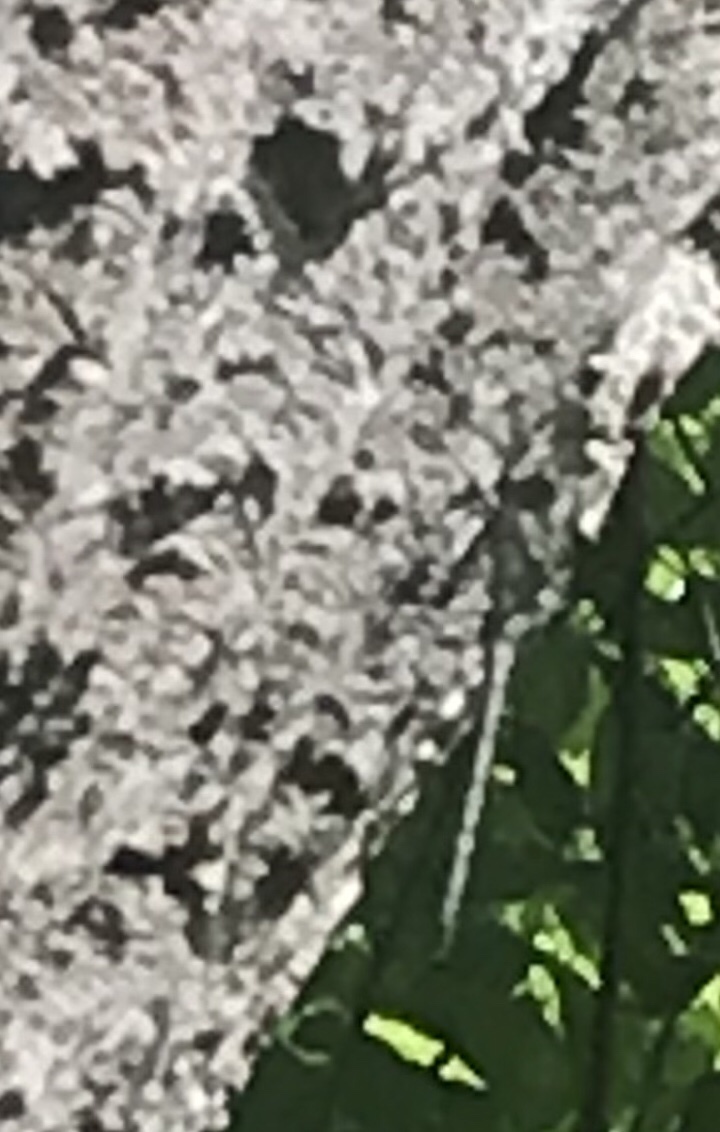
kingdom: Animalia
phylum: Arthropoda
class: Insecta
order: Odonata
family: Petaluridae
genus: Tachopteryx
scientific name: Tachopteryx thoreyi
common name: Gray petaltail
